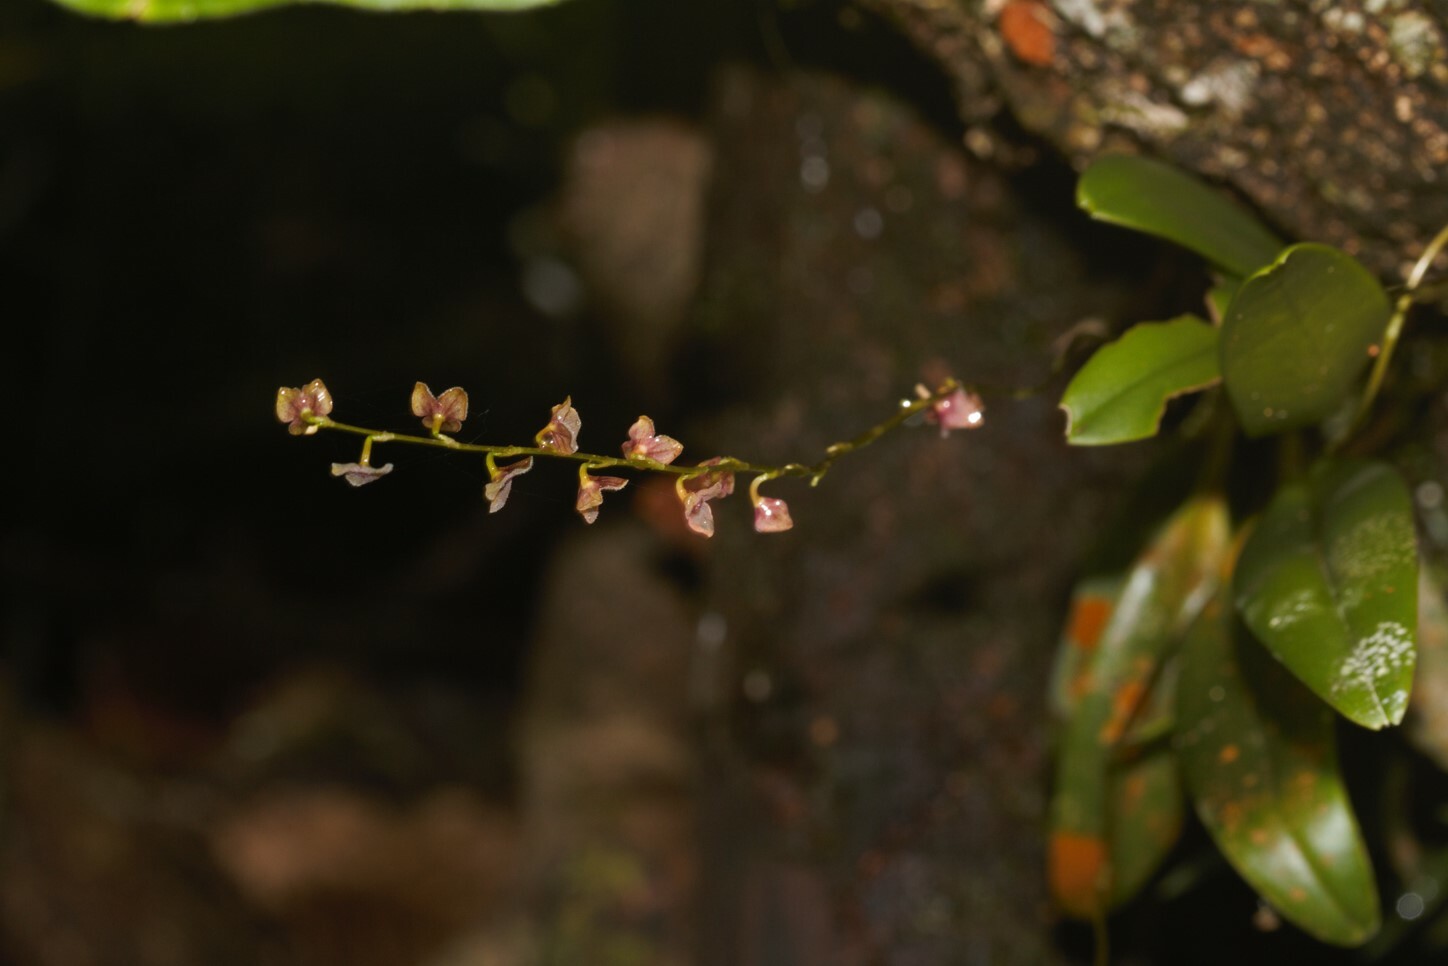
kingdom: Plantae
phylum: Tracheophyta
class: Liliopsida
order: Asparagales
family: Orchidaceae
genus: Stelis
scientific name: Stelis argentata
